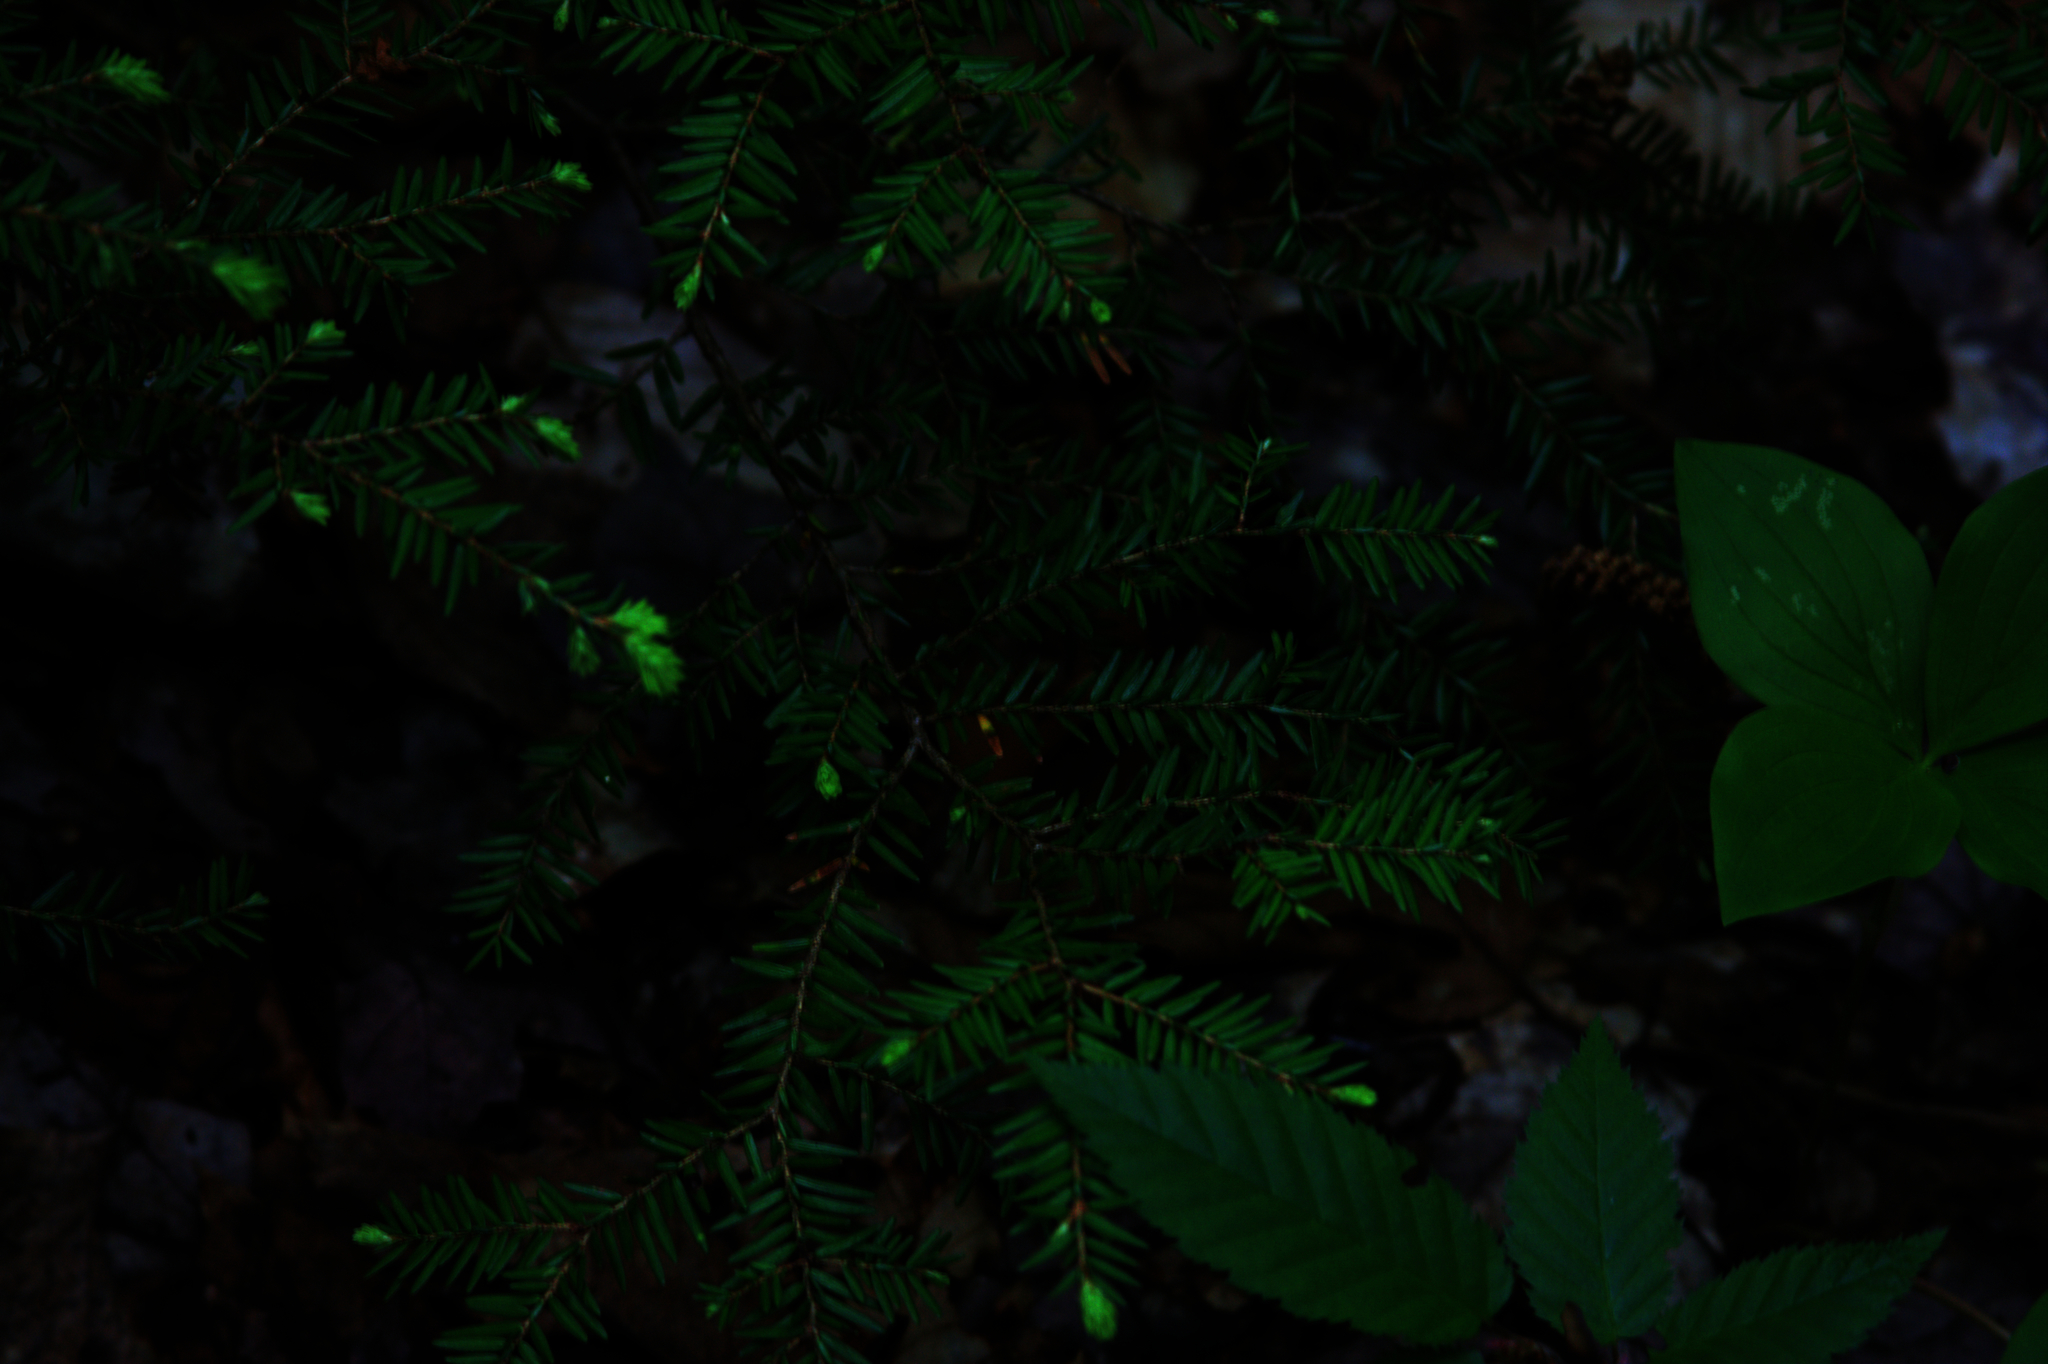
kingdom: Plantae
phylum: Tracheophyta
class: Pinopsida
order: Pinales
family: Pinaceae
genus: Tsuga
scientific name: Tsuga canadensis
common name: Eastern hemlock
